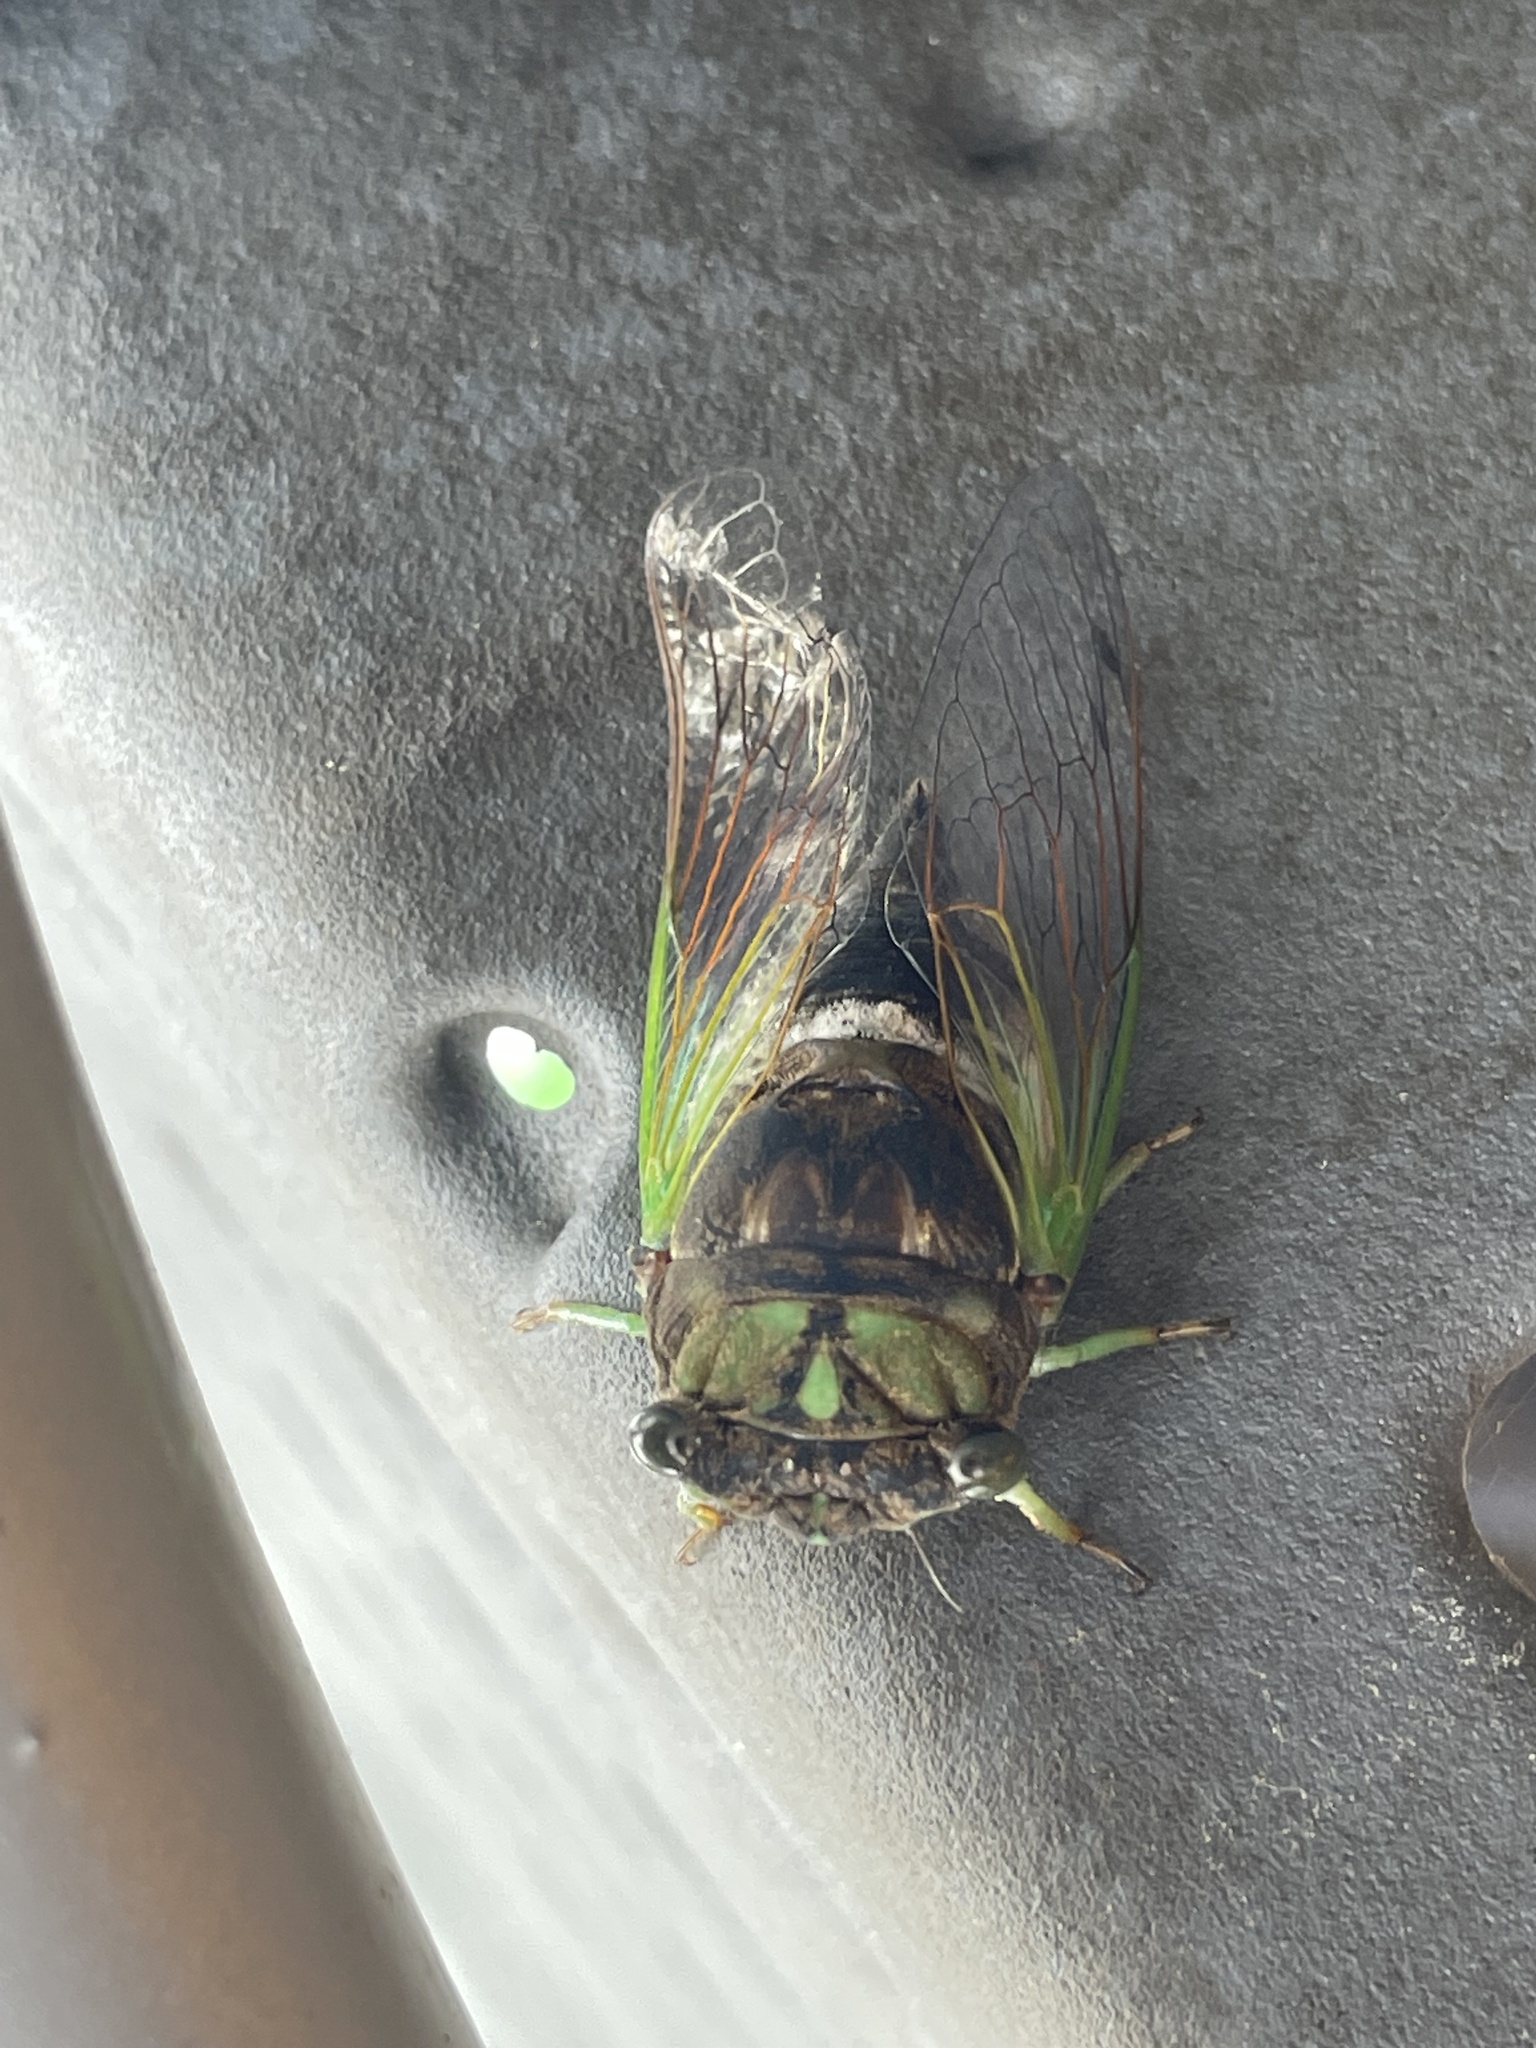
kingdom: Animalia
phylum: Arthropoda
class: Insecta
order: Hemiptera
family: Cicadidae
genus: Neotibicen
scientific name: Neotibicen tibicen
